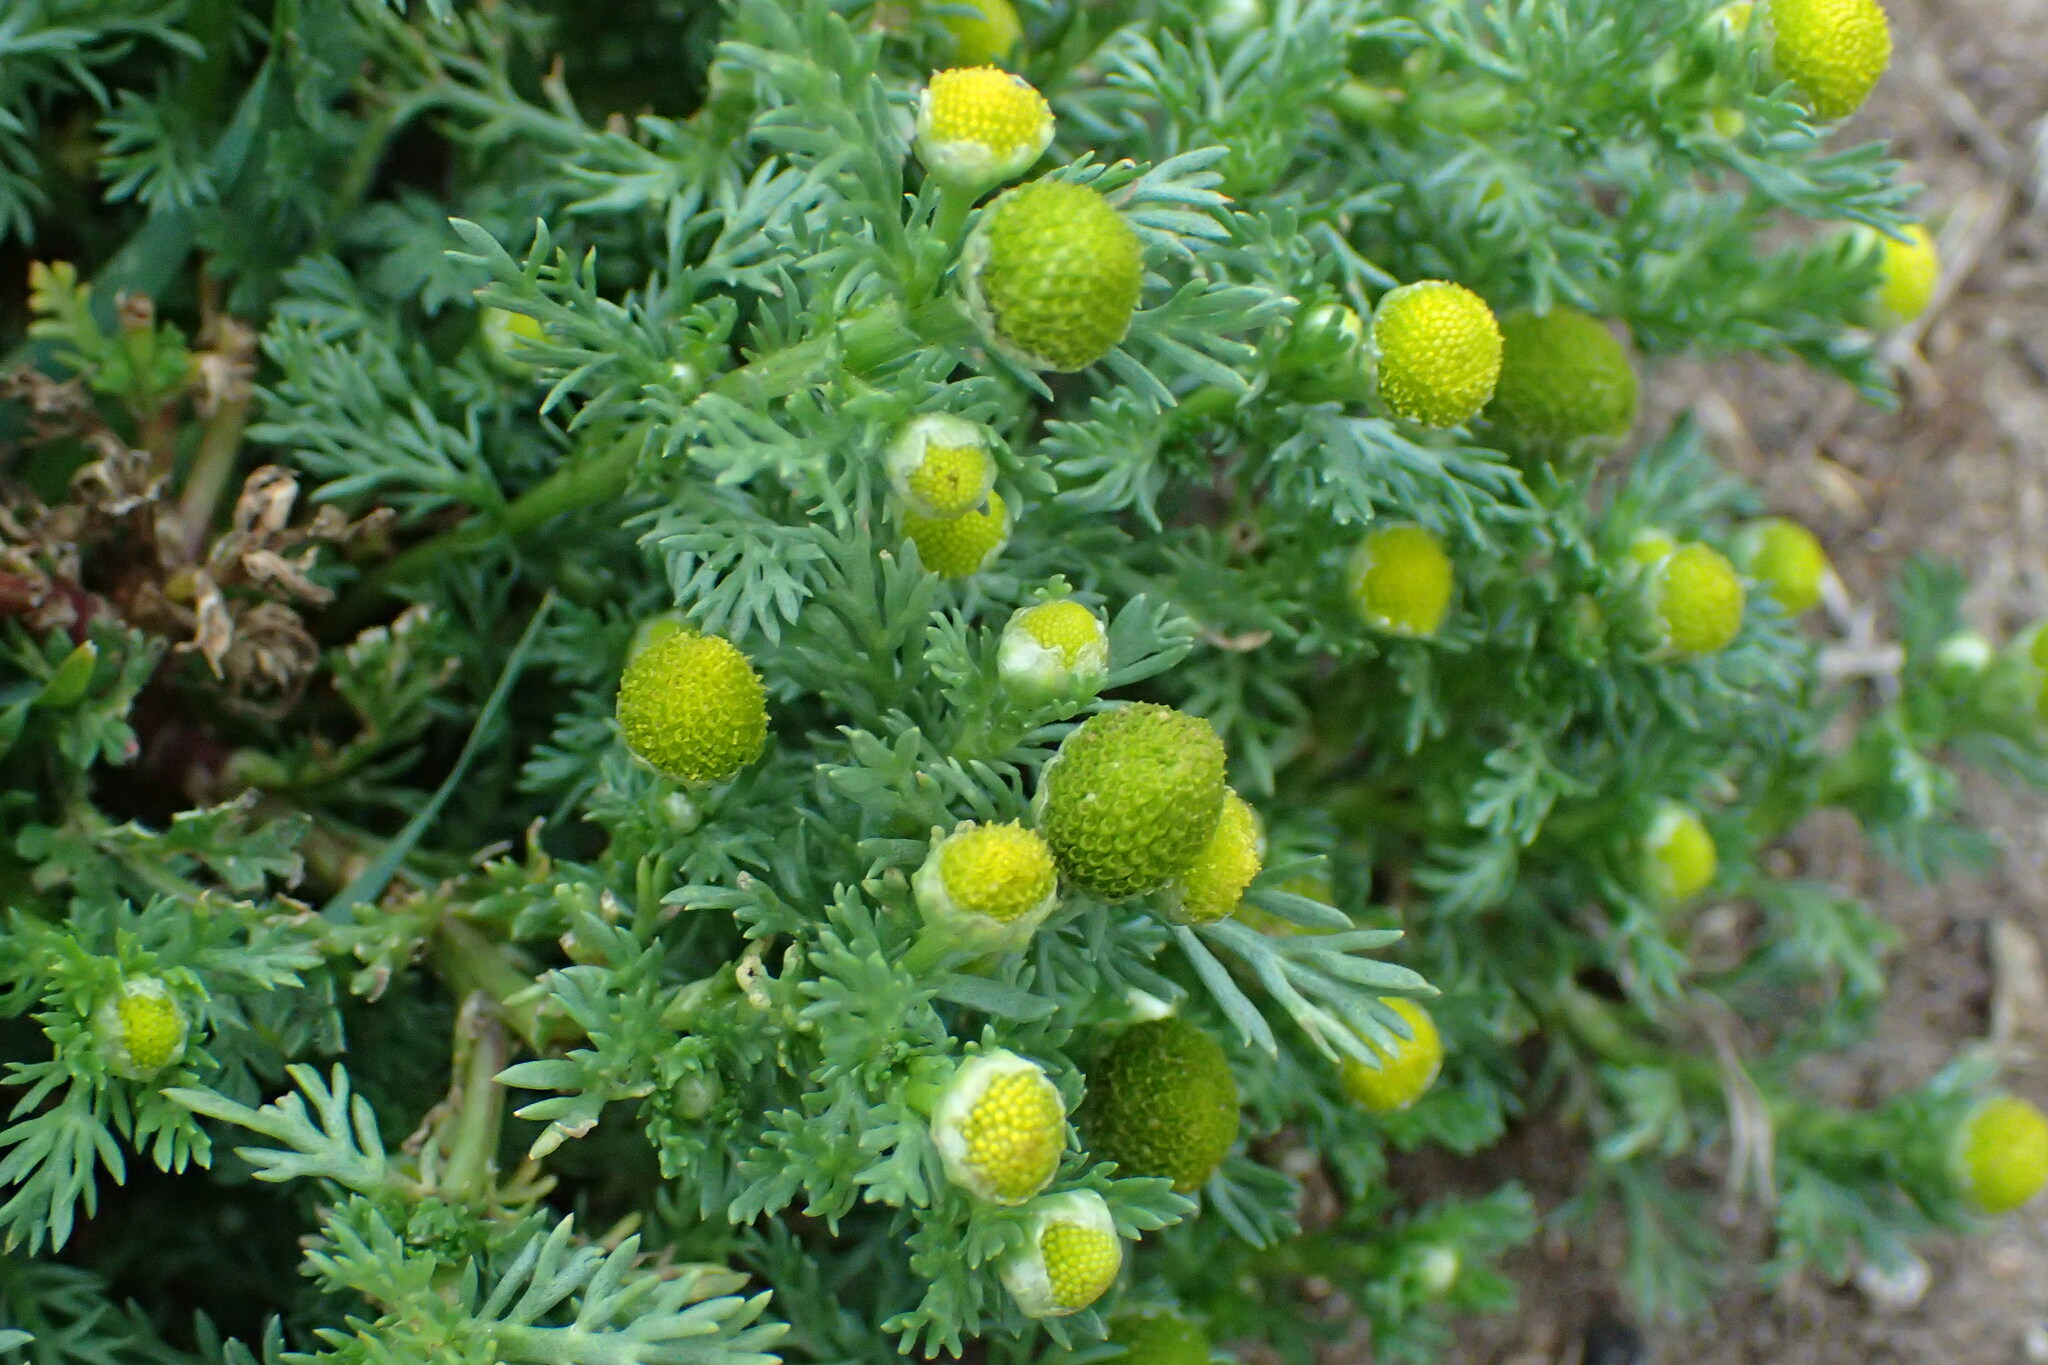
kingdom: Plantae
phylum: Tracheophyta
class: Magnoliopsida
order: Asterales
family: Asteraceae
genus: Matricaria
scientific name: Matricaria discoidea
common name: Disc mayweed
